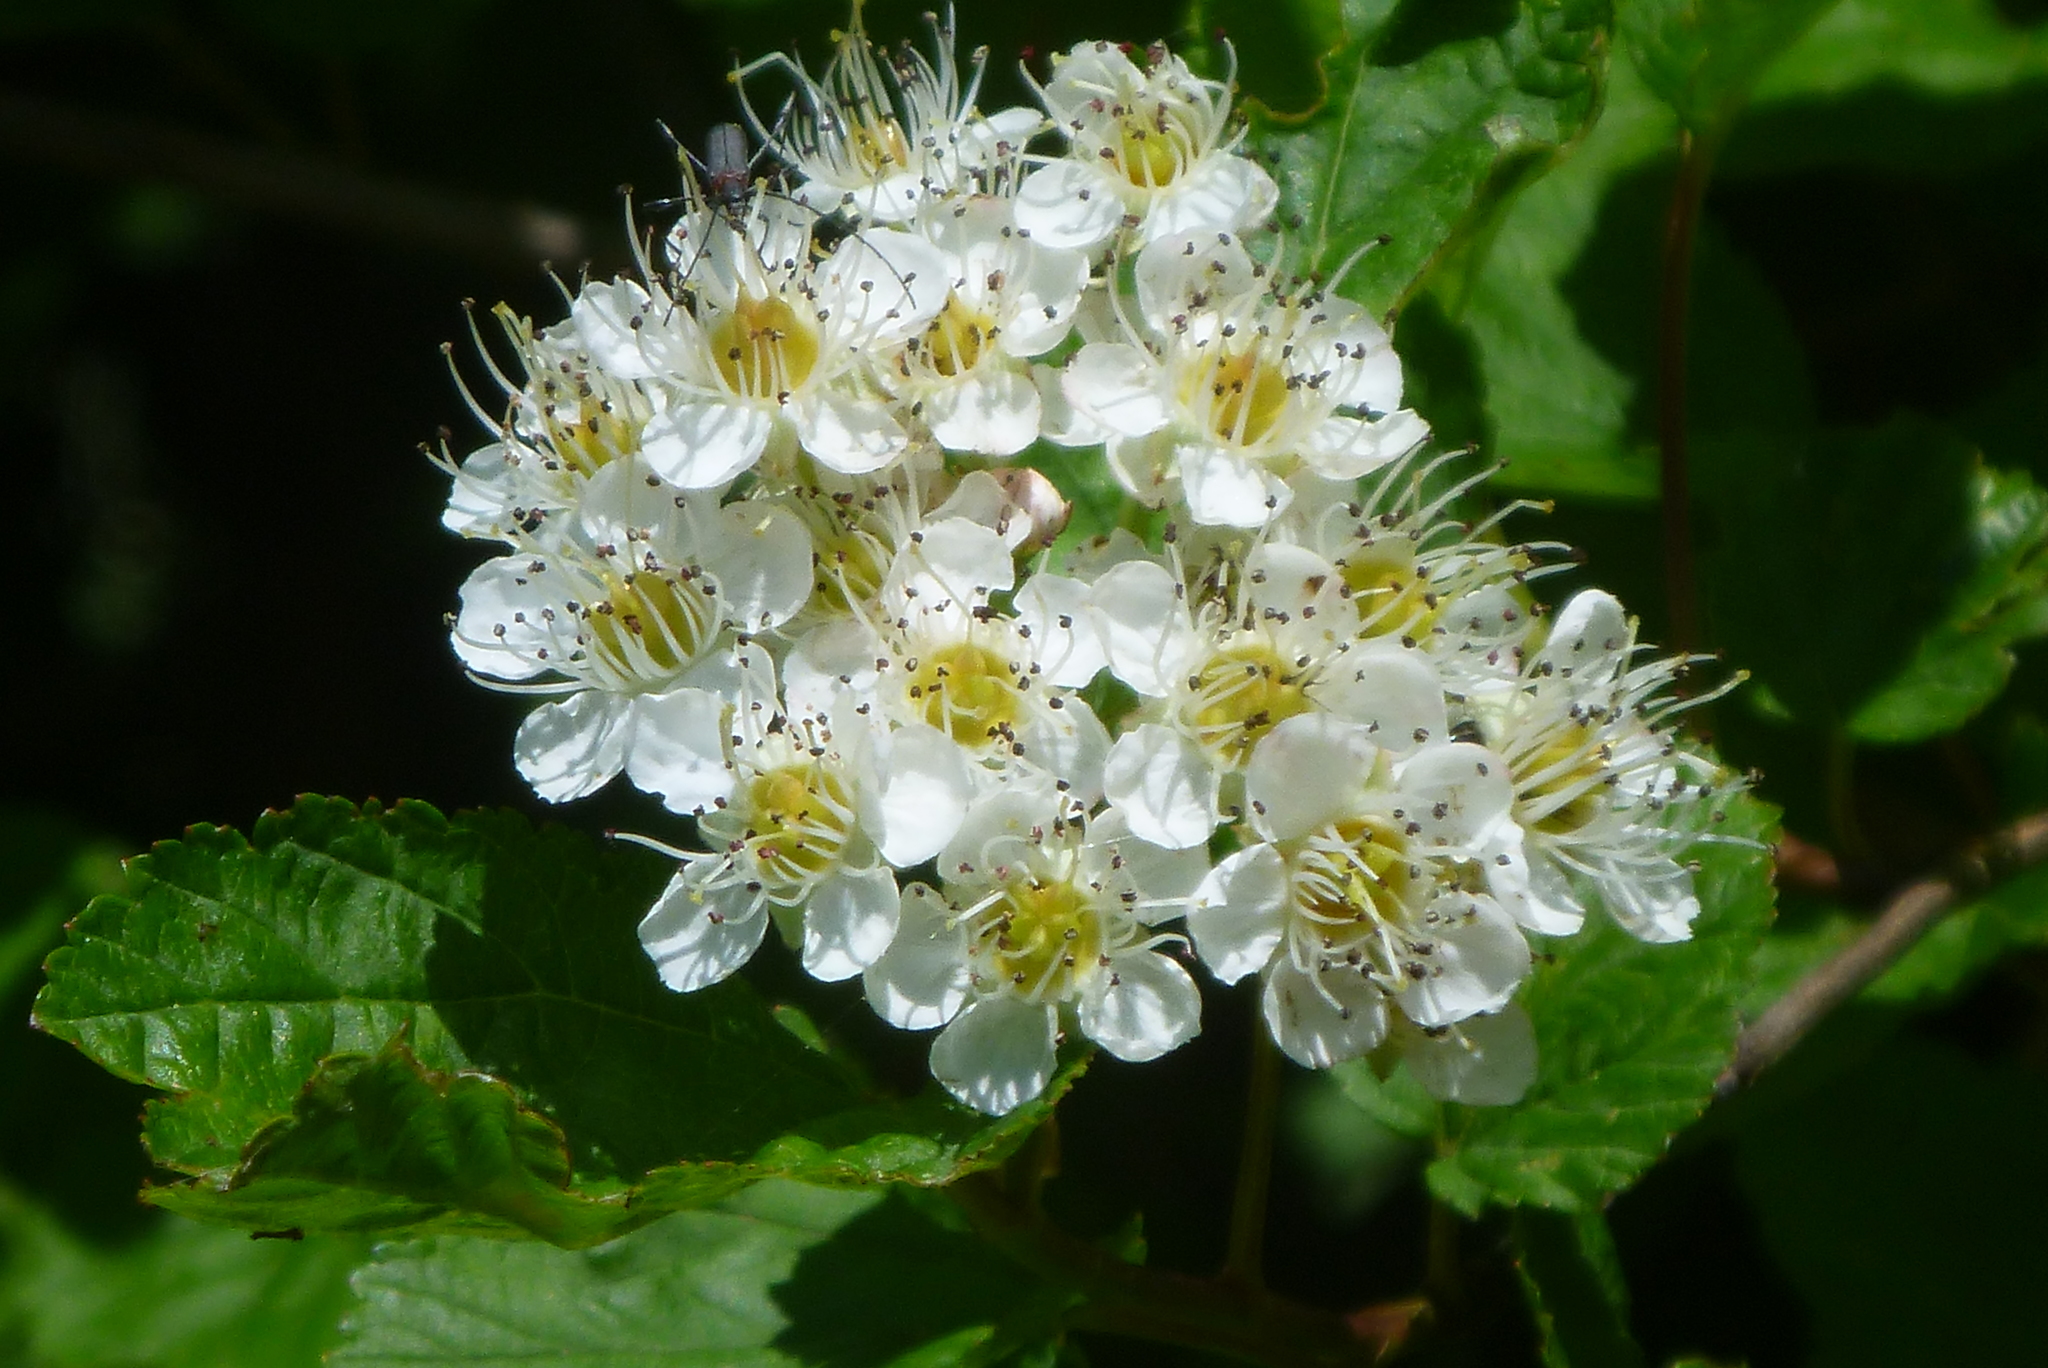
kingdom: Plantae
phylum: Tracheophyta
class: Magnoliopsida
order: Rosales
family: Rosaceae
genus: Physocarpus
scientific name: Physocarpus opulifolius
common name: Ninebark
